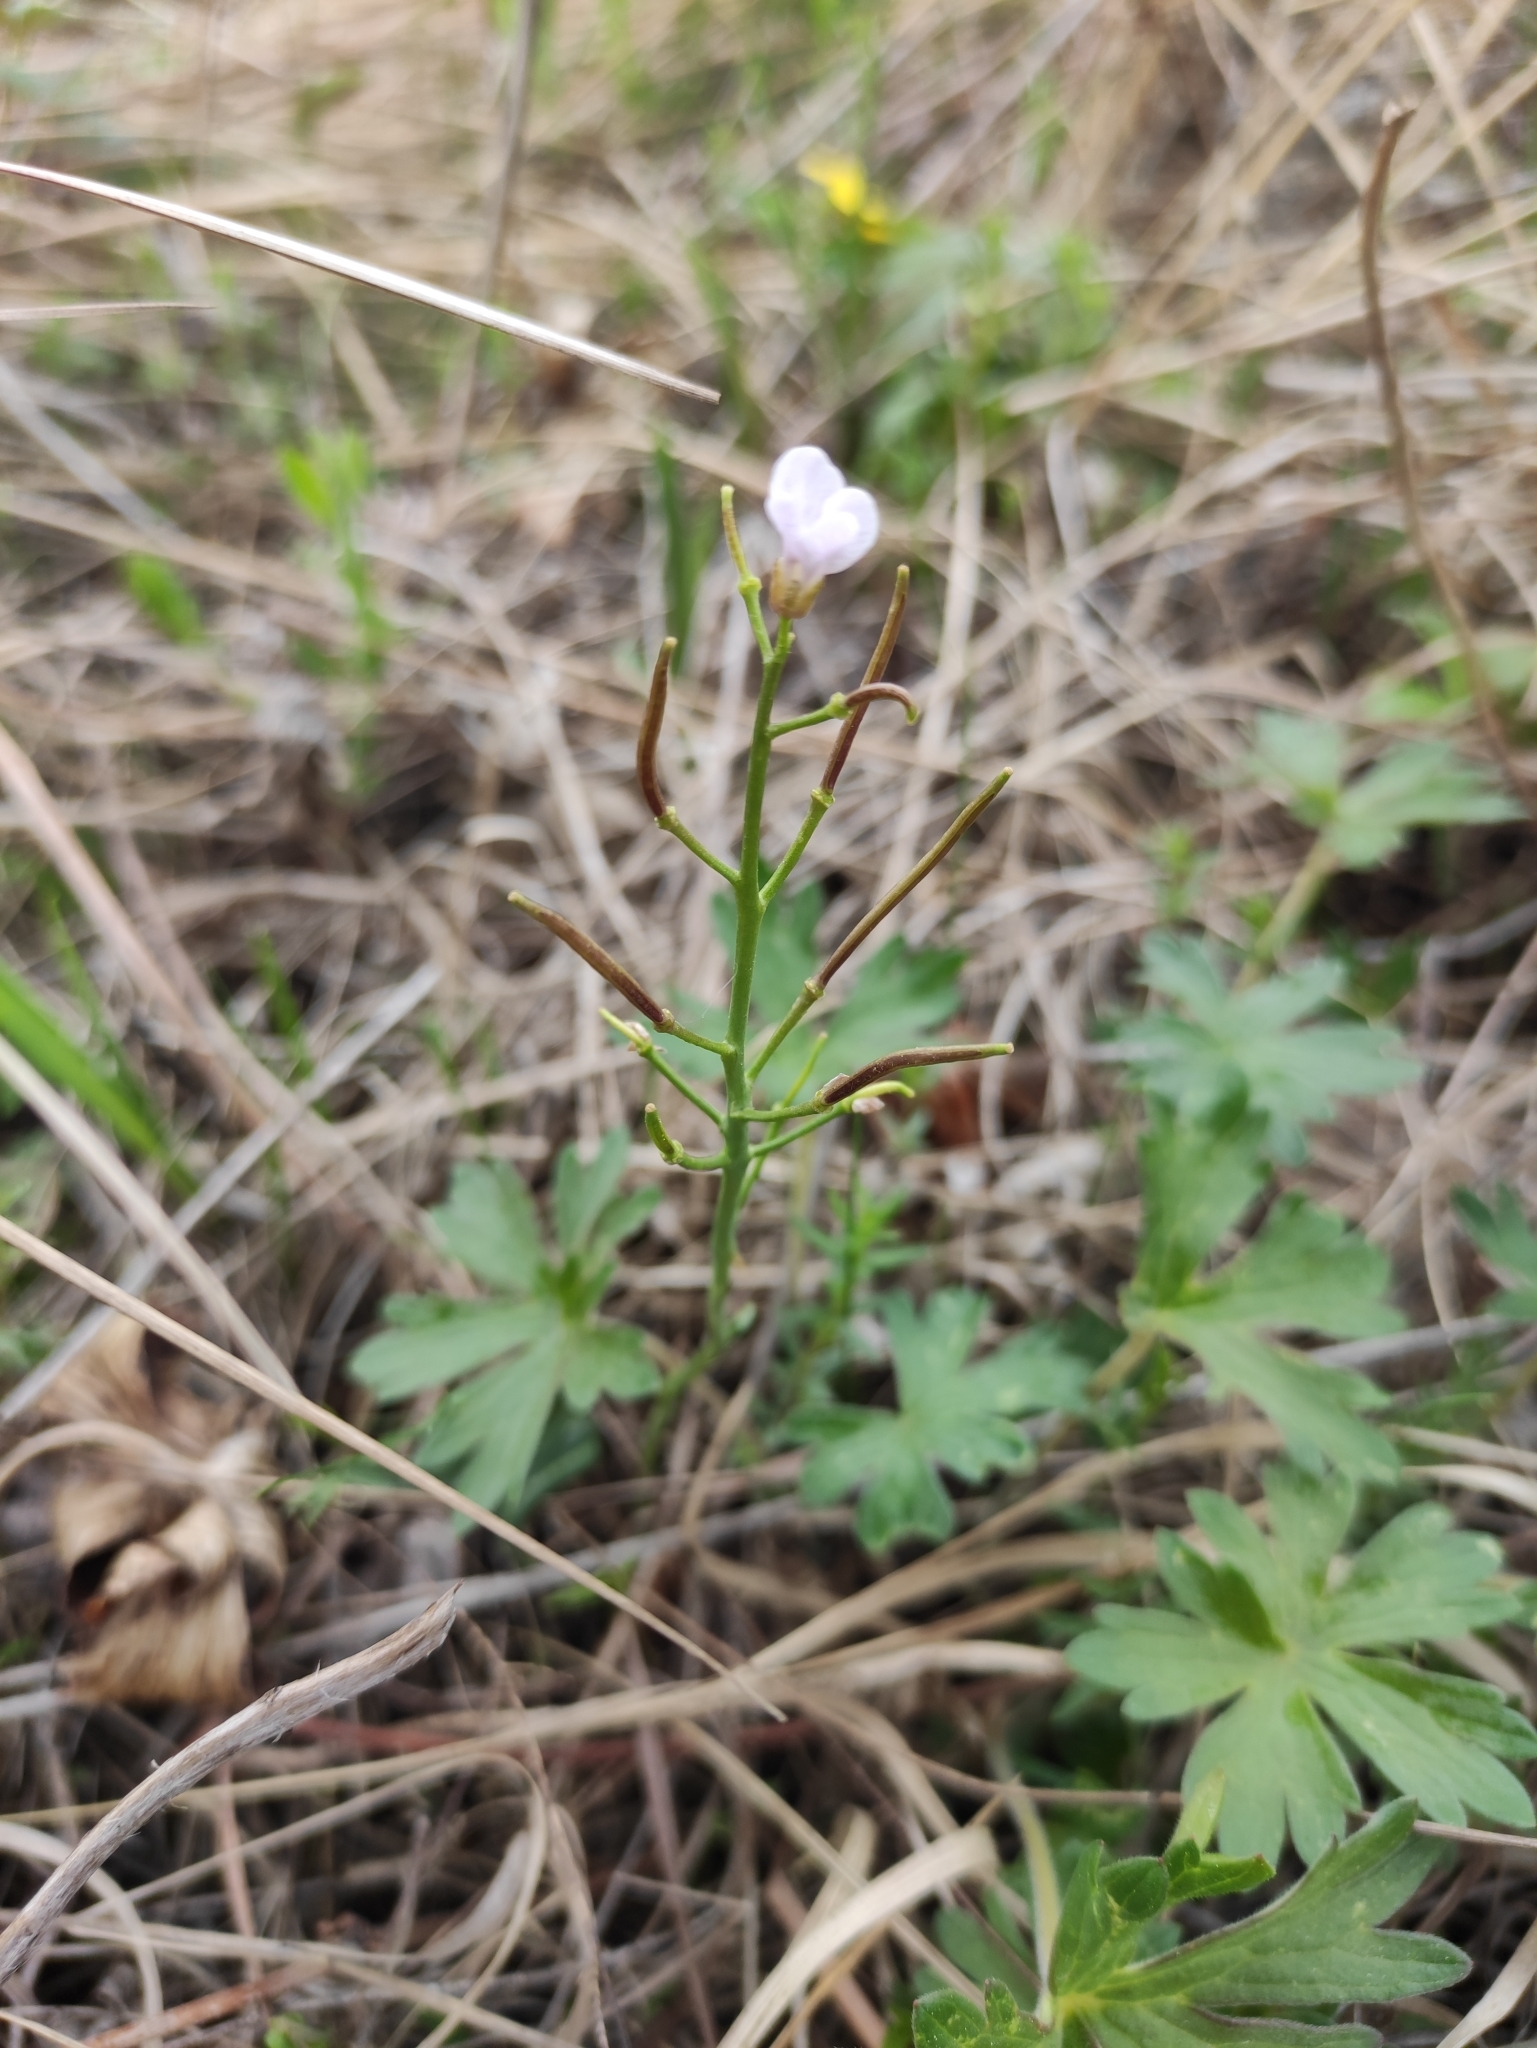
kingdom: Plantae
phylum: Tracheophyta
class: Magnoliopsida
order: Brassicales
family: Brassicaceae
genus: Cardamine
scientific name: Cardamine trifida
